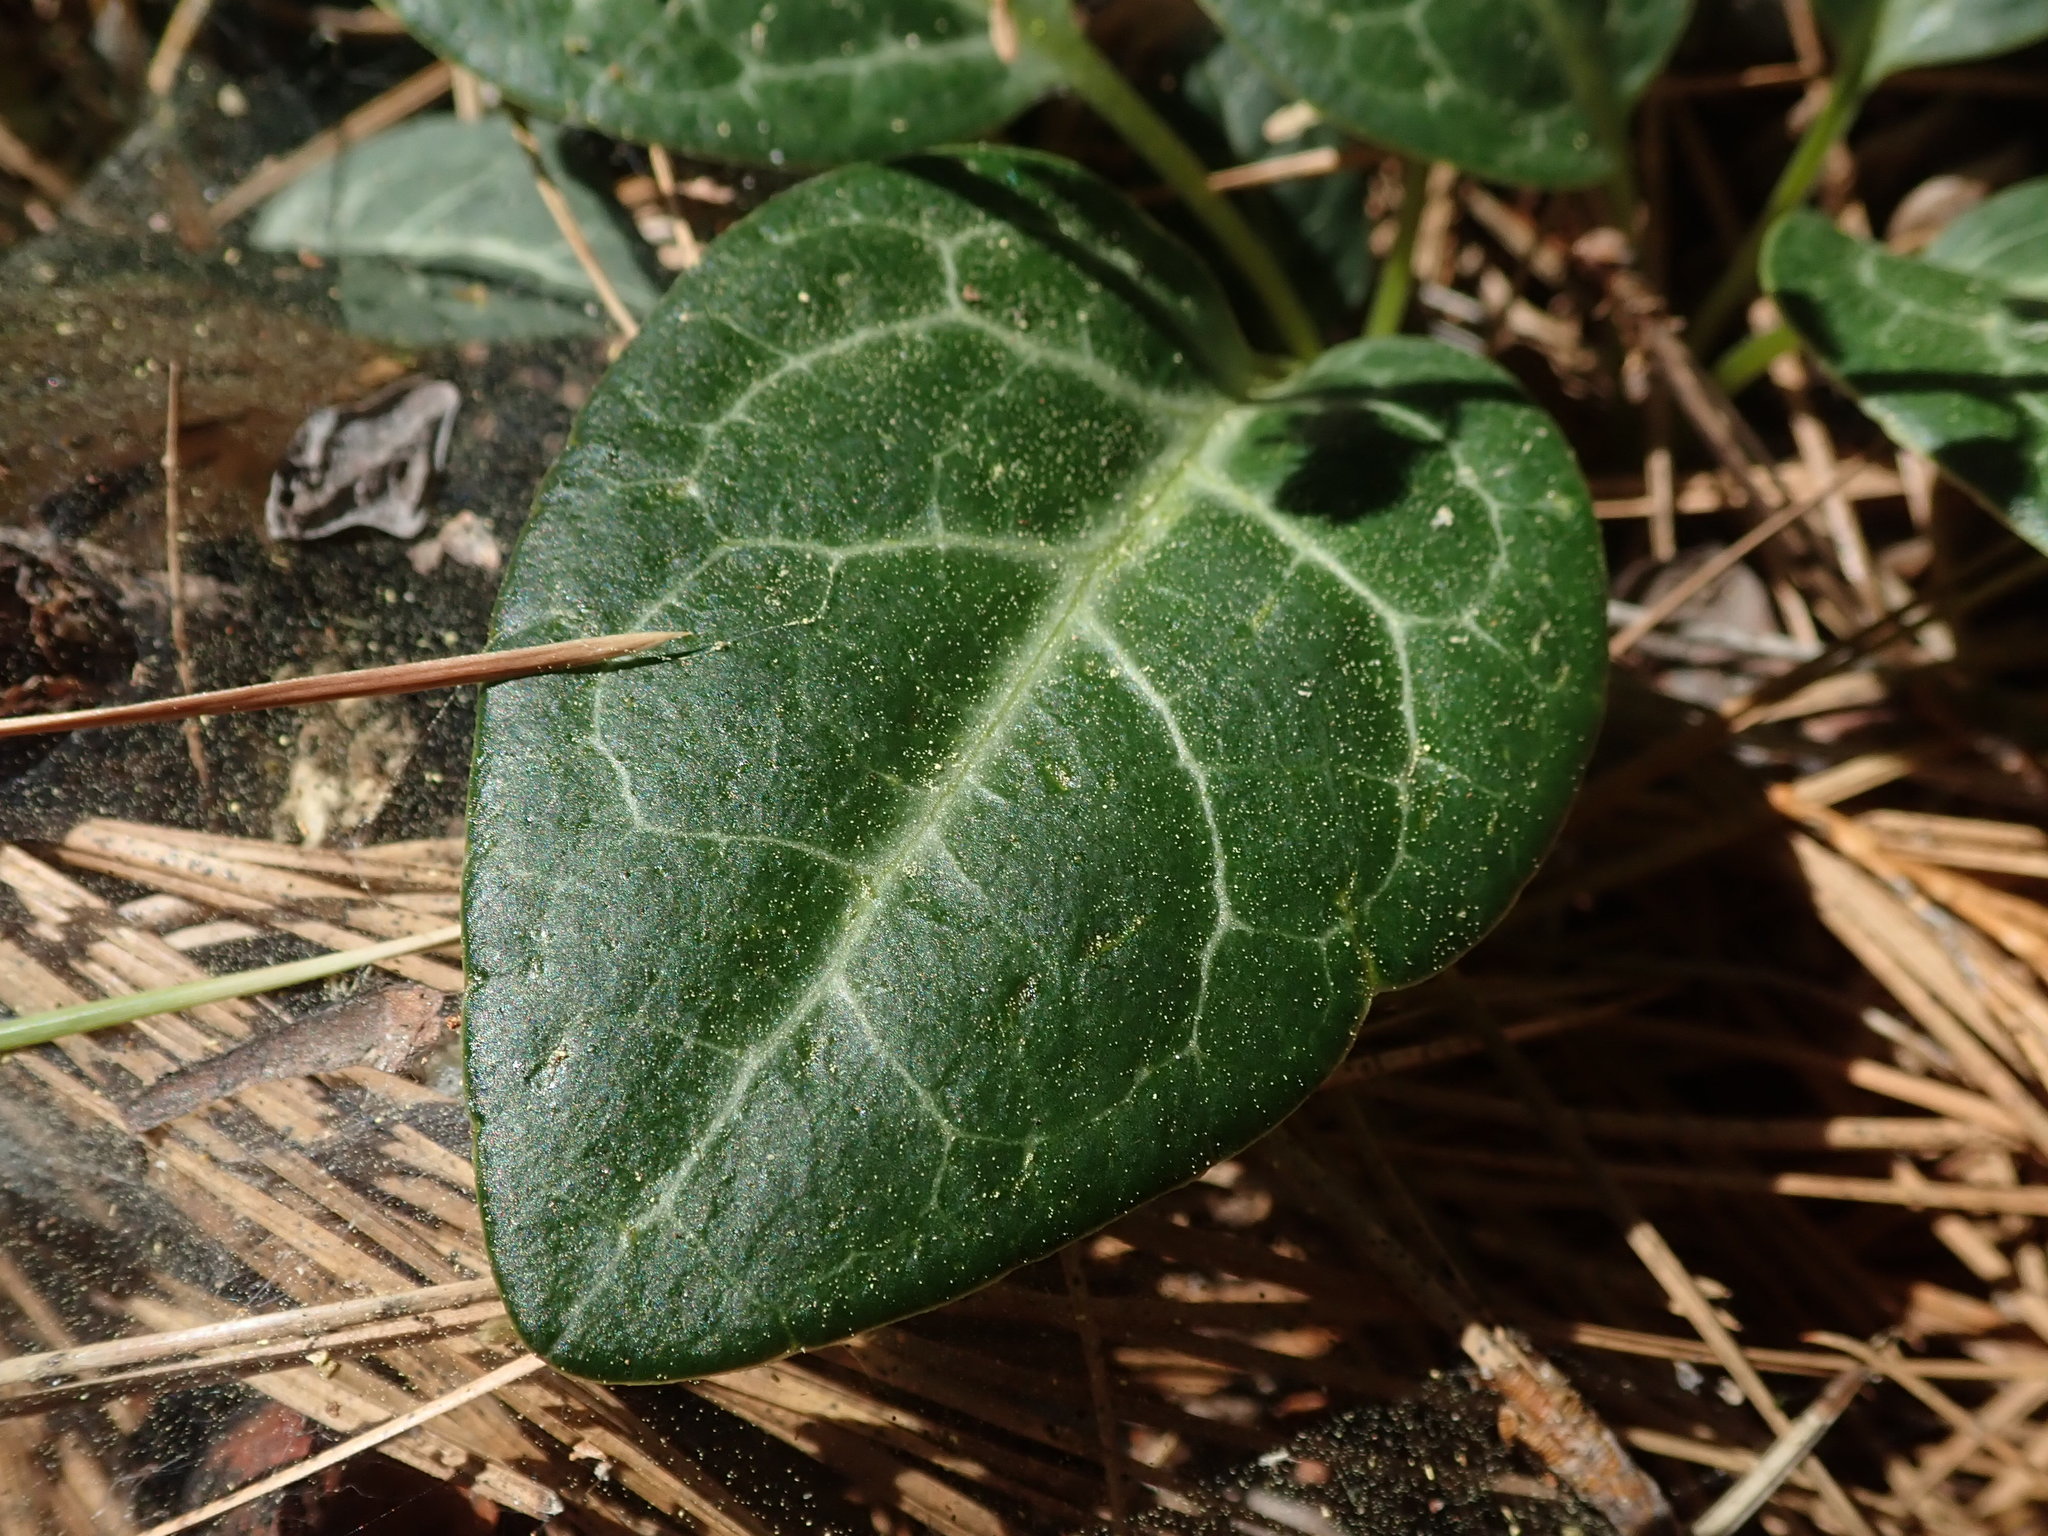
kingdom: Plantae
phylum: Tracheophyta
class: Magnoliopsida
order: Ericales
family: Ericaceae
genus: Pyrola
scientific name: Pyrola picta
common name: White-vein wintergreen
